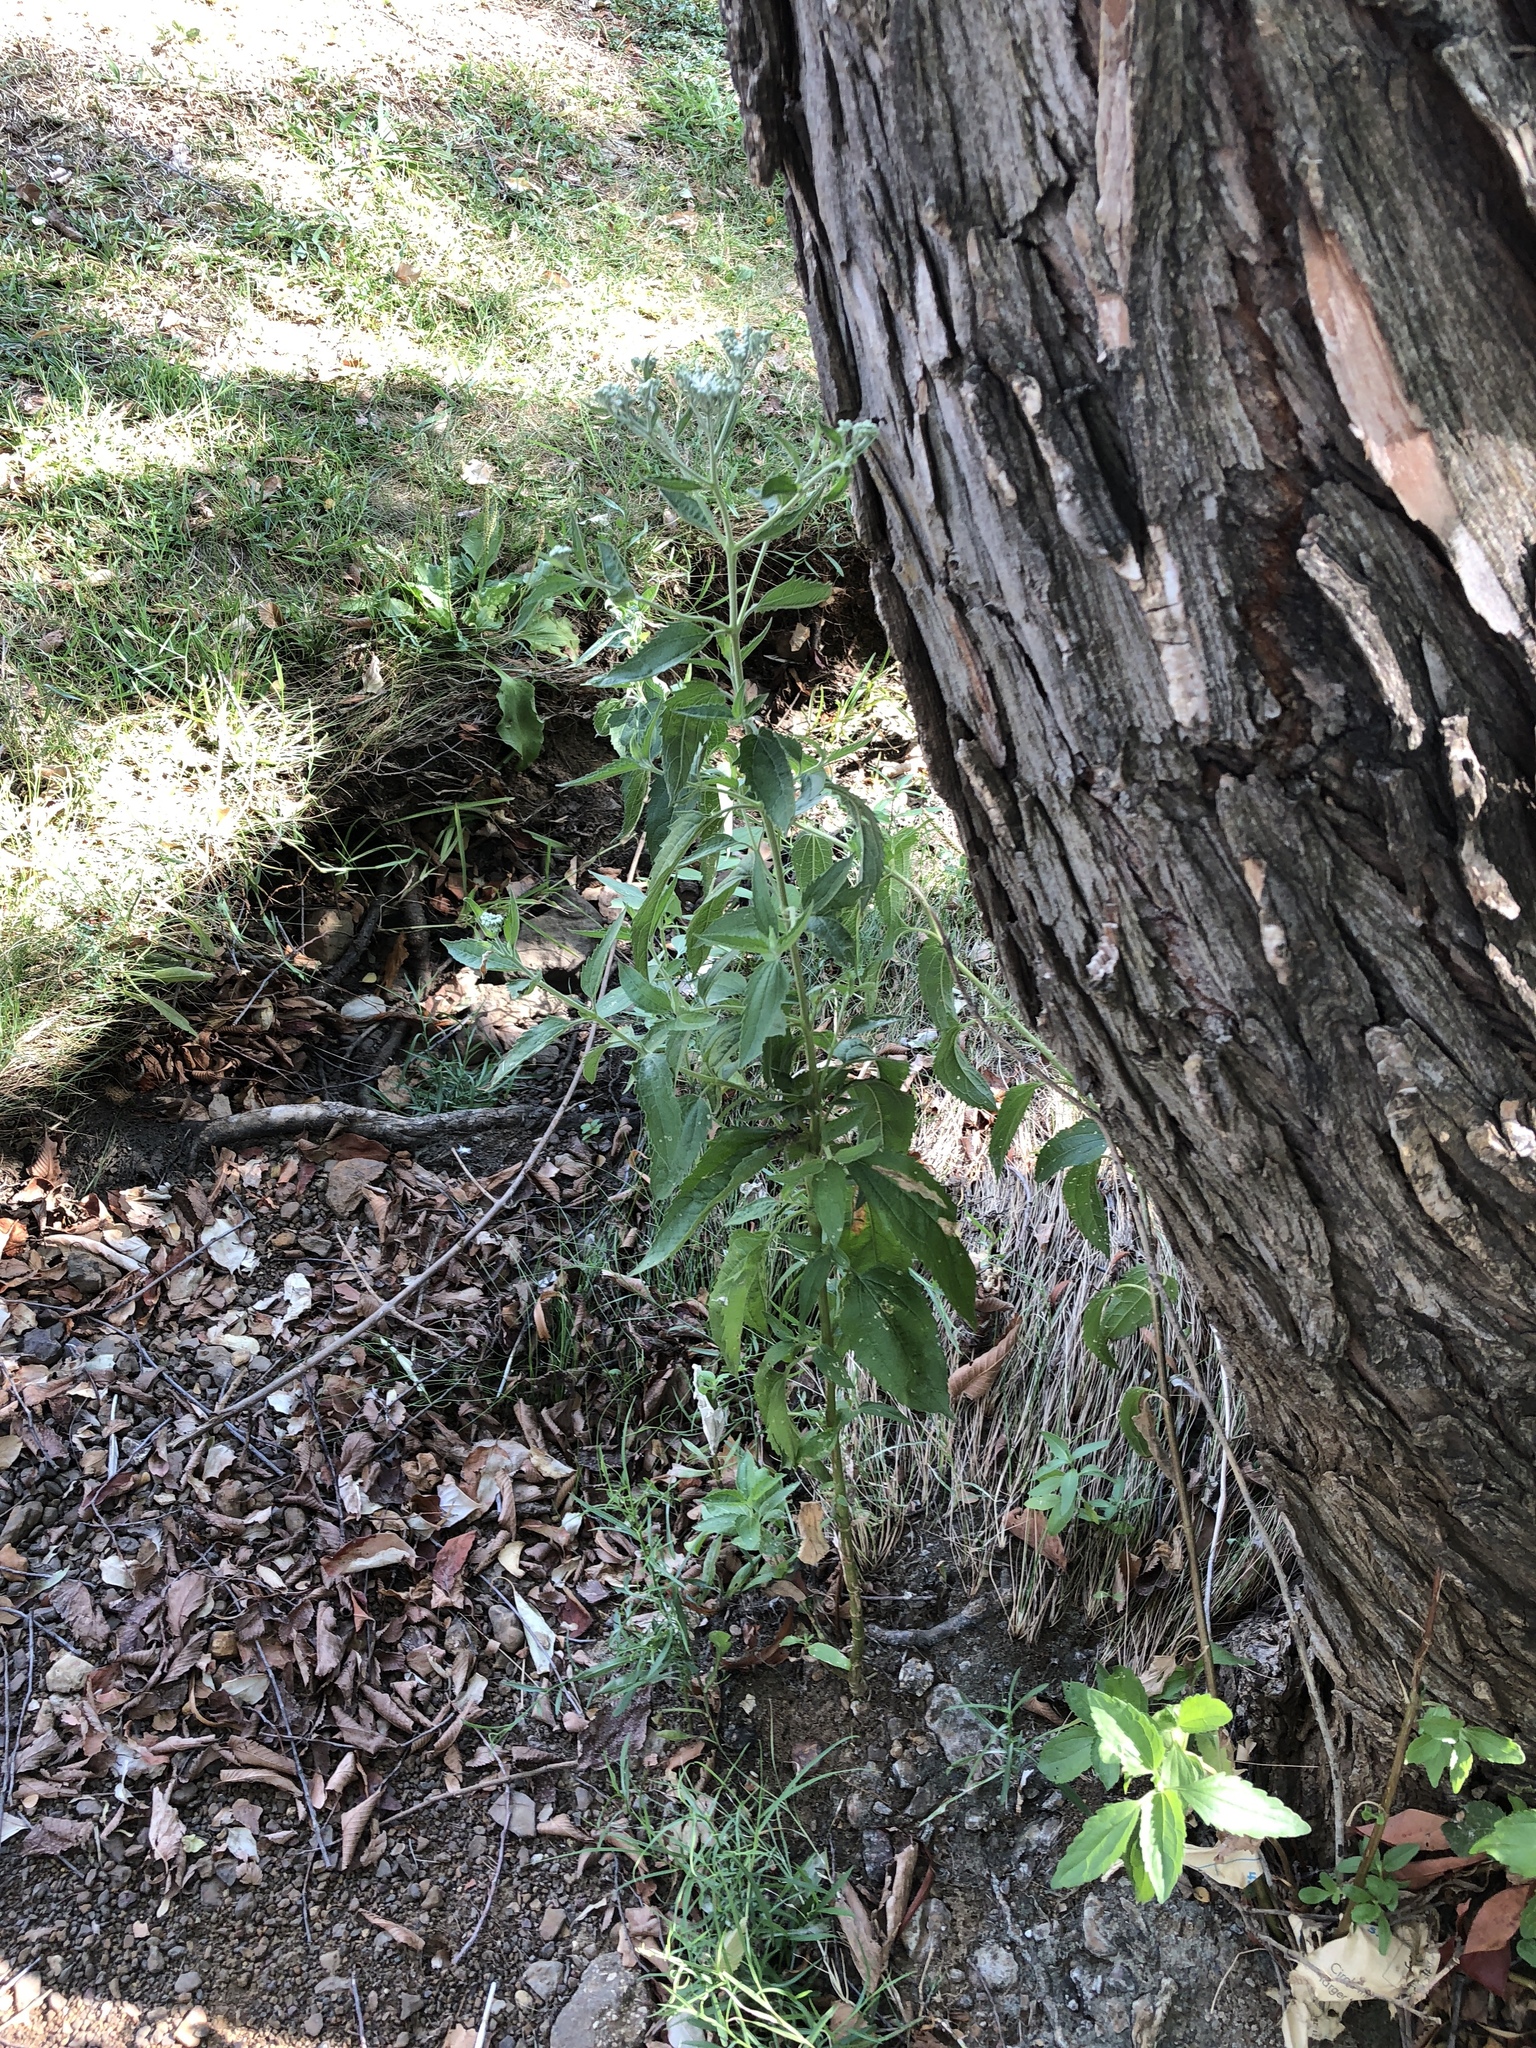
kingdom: Plantae
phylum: Tracheophyta
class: Magnoliopsida
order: Asterales
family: Asteraceae
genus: Eupatorium
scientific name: Eupatorium serotinum
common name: Late boneset
